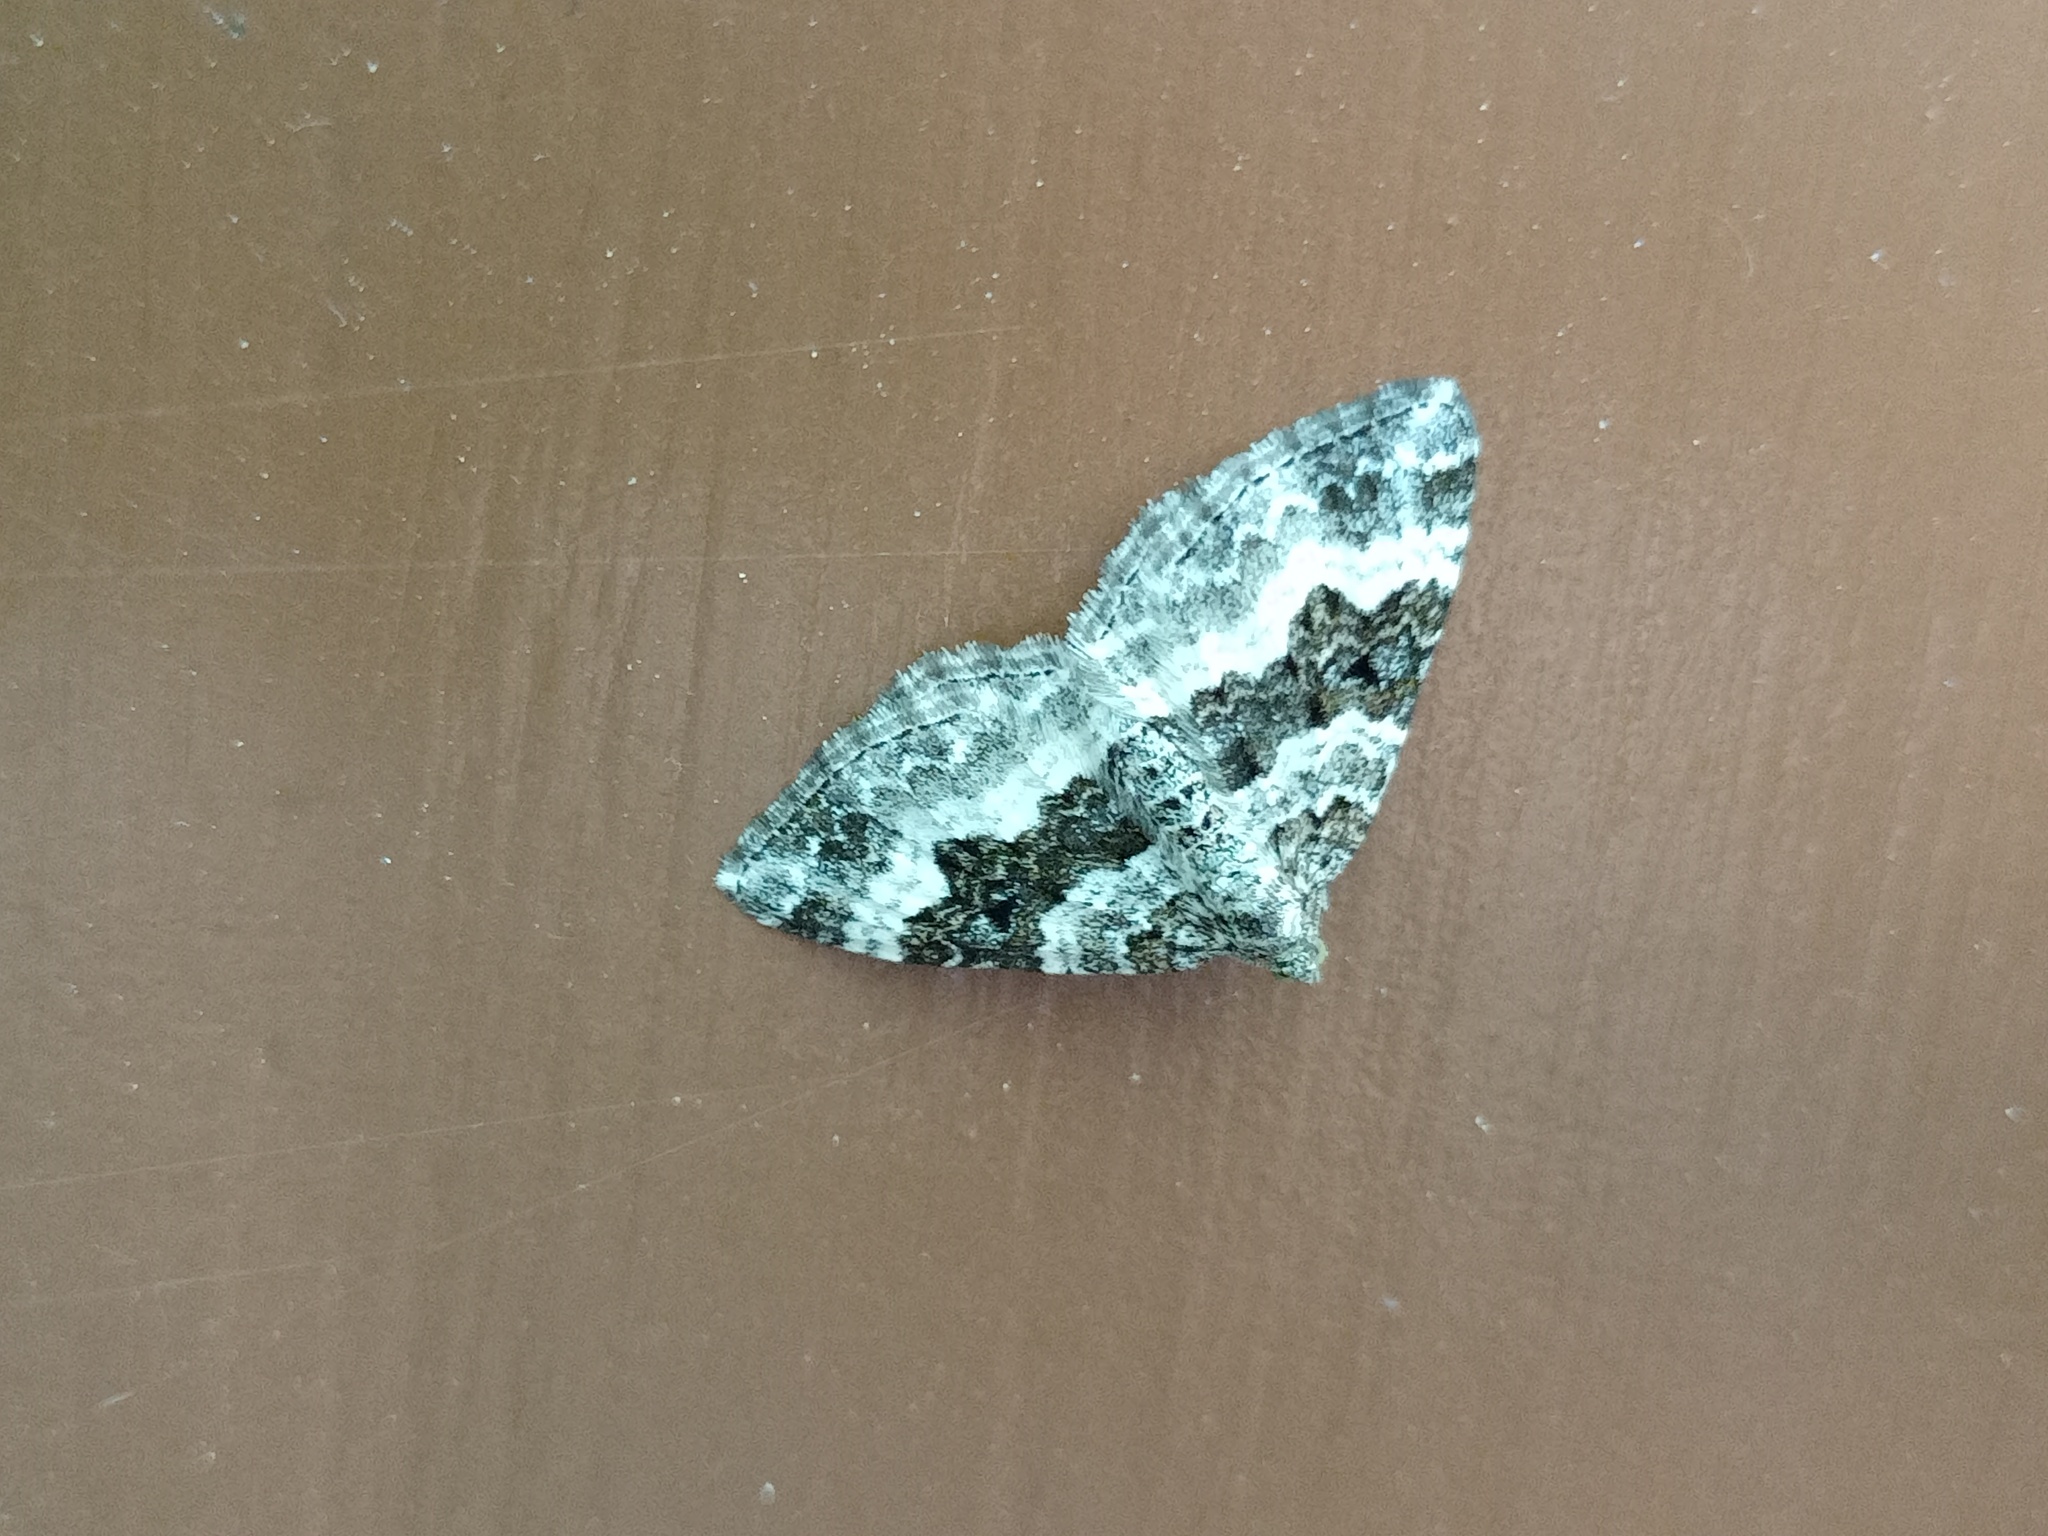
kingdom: Animalia
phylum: Arthropoda
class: Insecta
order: Lepidoptera
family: Geometridae
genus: Epirrhoe
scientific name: Epirrhoe alternata
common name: Common carpet
